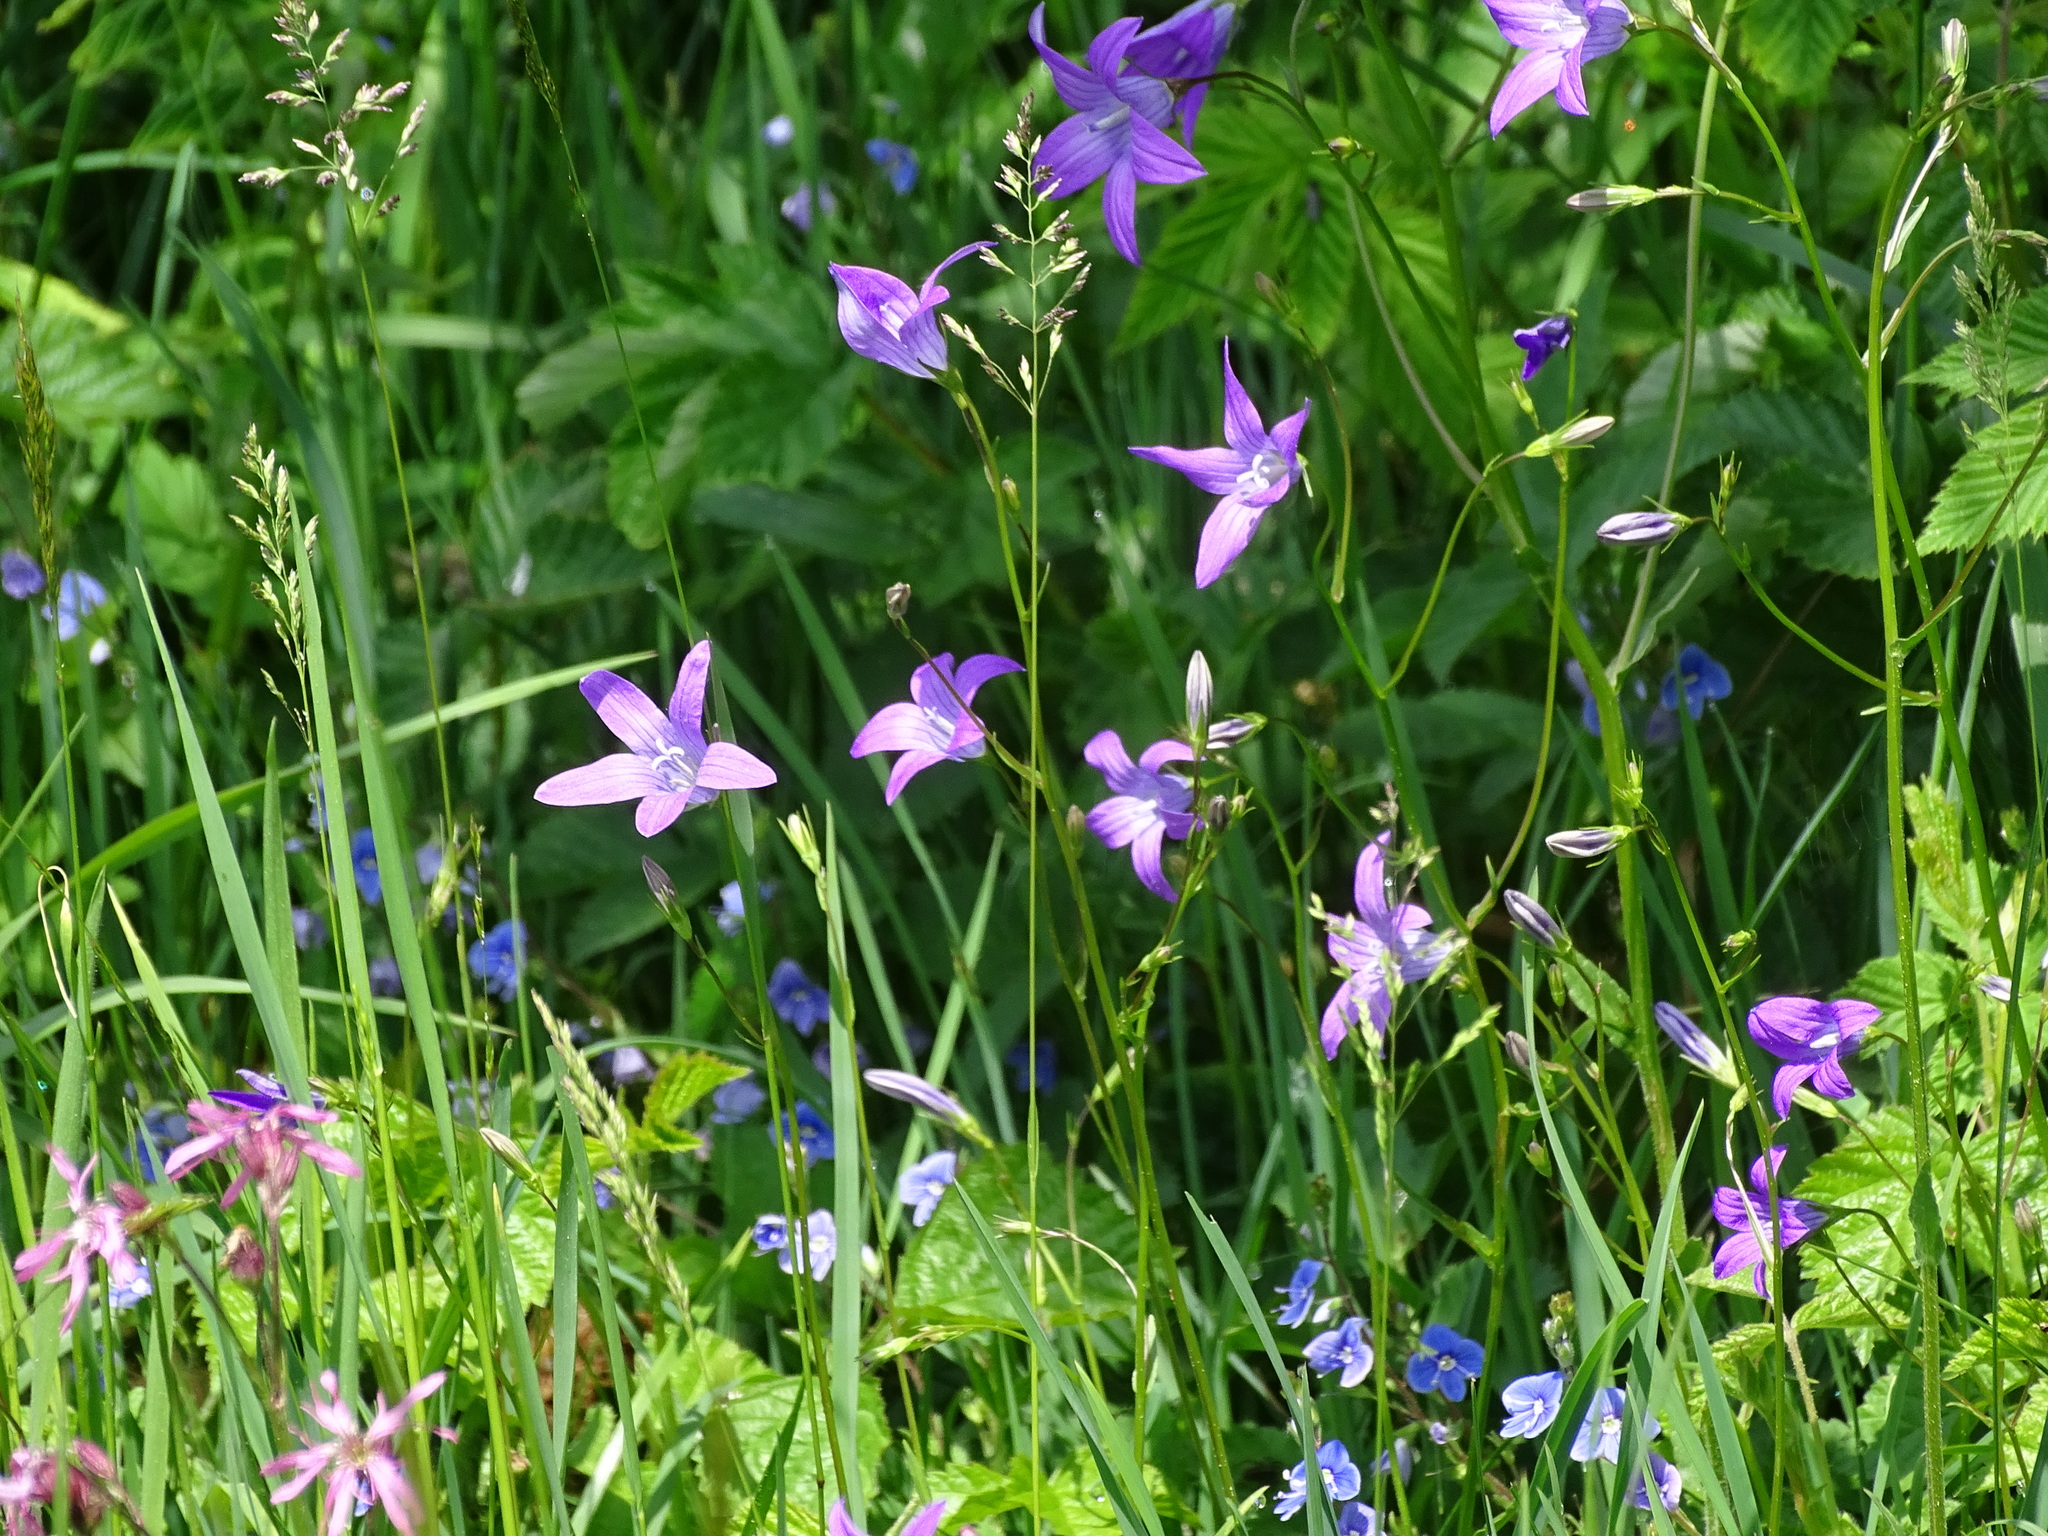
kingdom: Plantae
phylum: Tracheophyta
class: Magnoliopsida
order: Asterales
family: Campanulaceae
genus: Campanula
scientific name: Campanula patula
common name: Spreading bellflower
